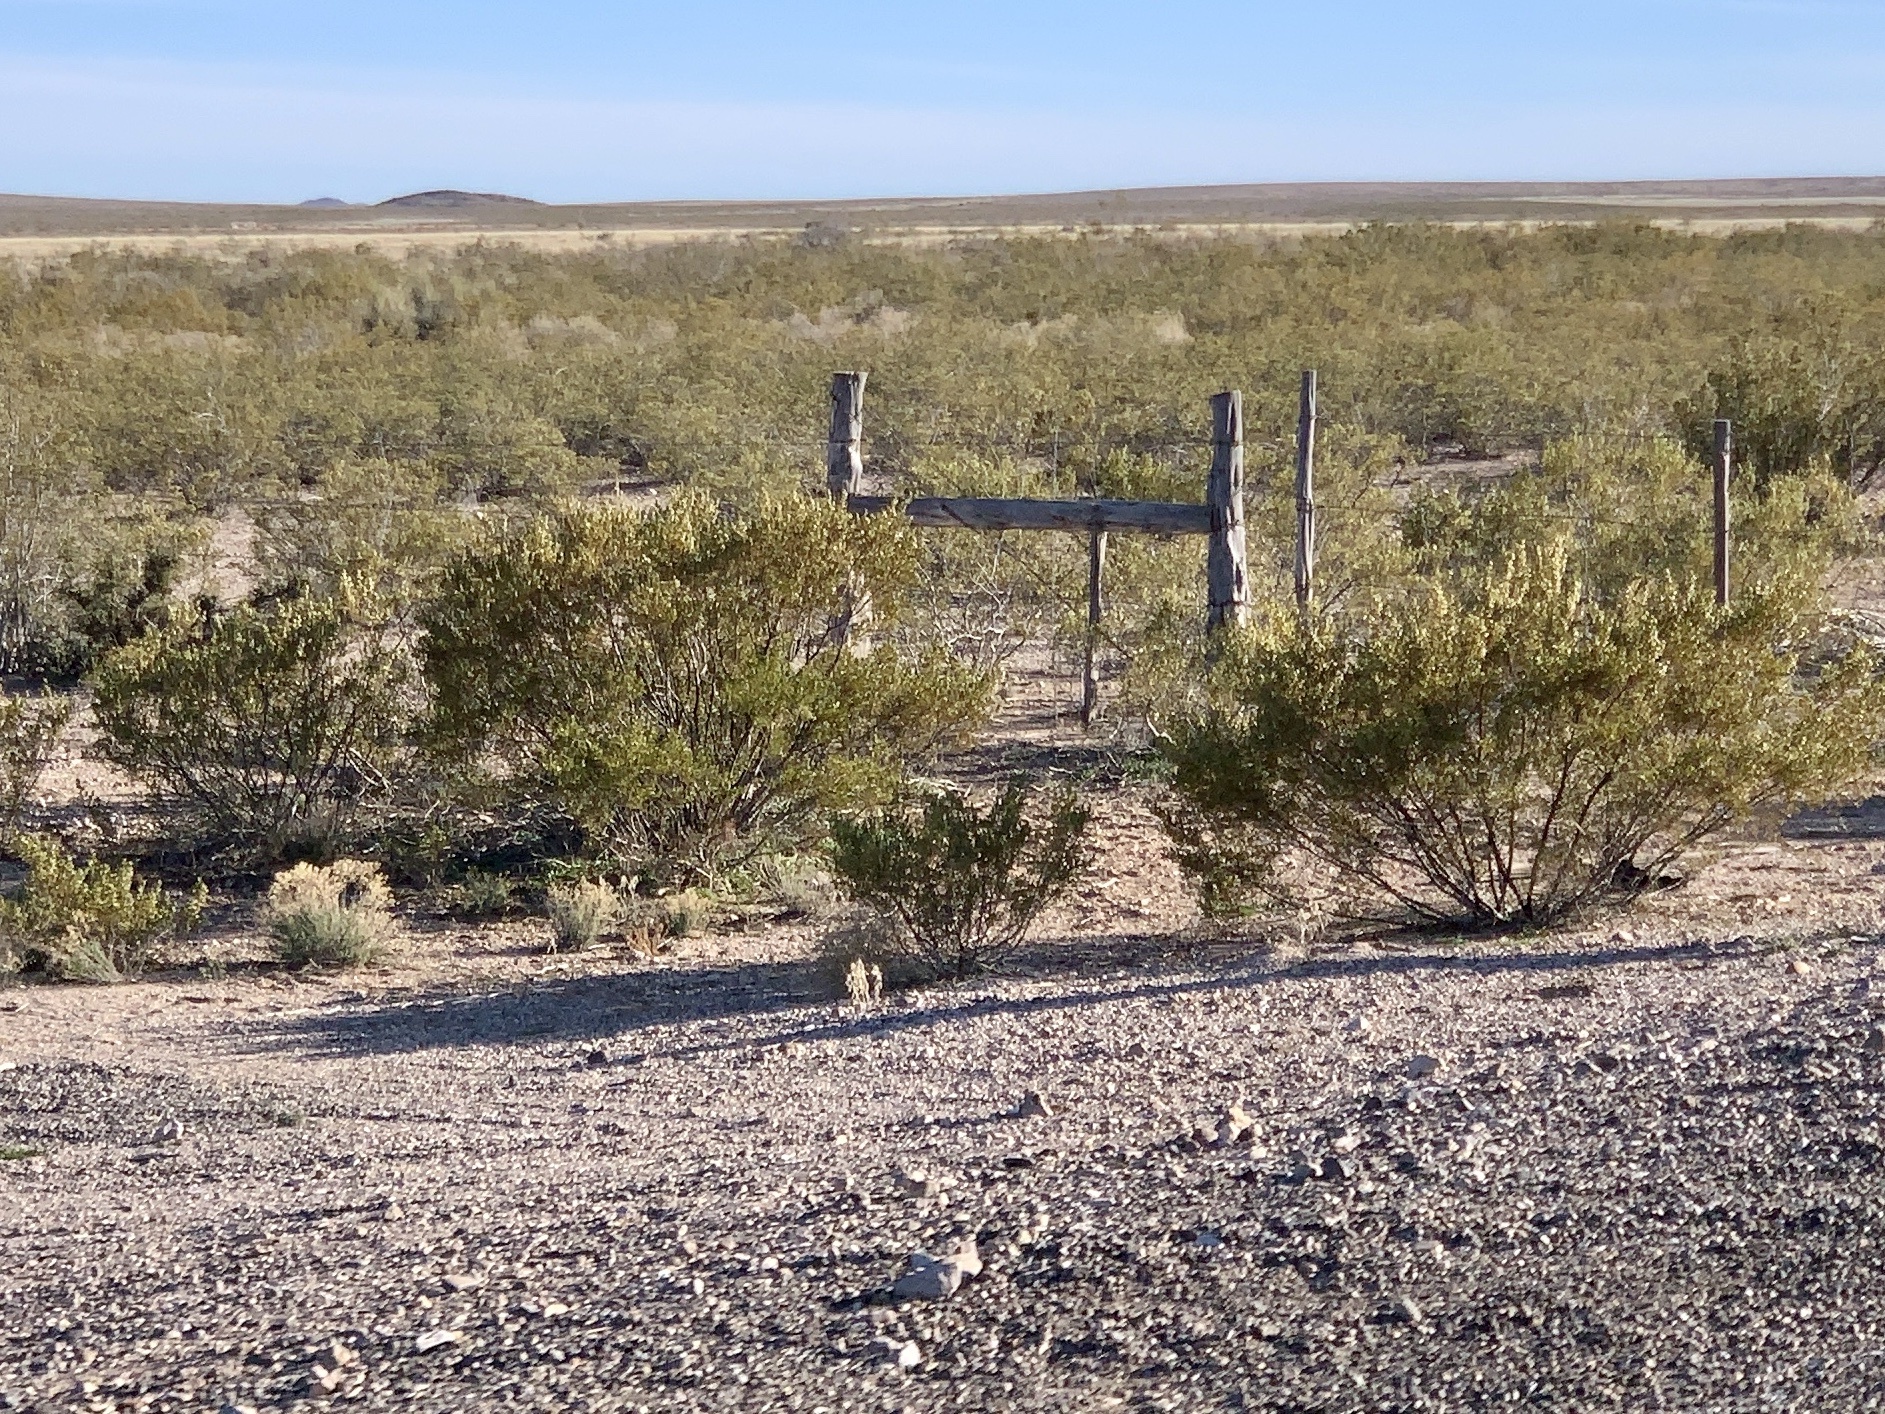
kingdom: Plantae
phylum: Tracheophyta
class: Magnoliopsida
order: Zygophyllales
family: Zygophyllaceae
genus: Larrea
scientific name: Larrea tridentata
